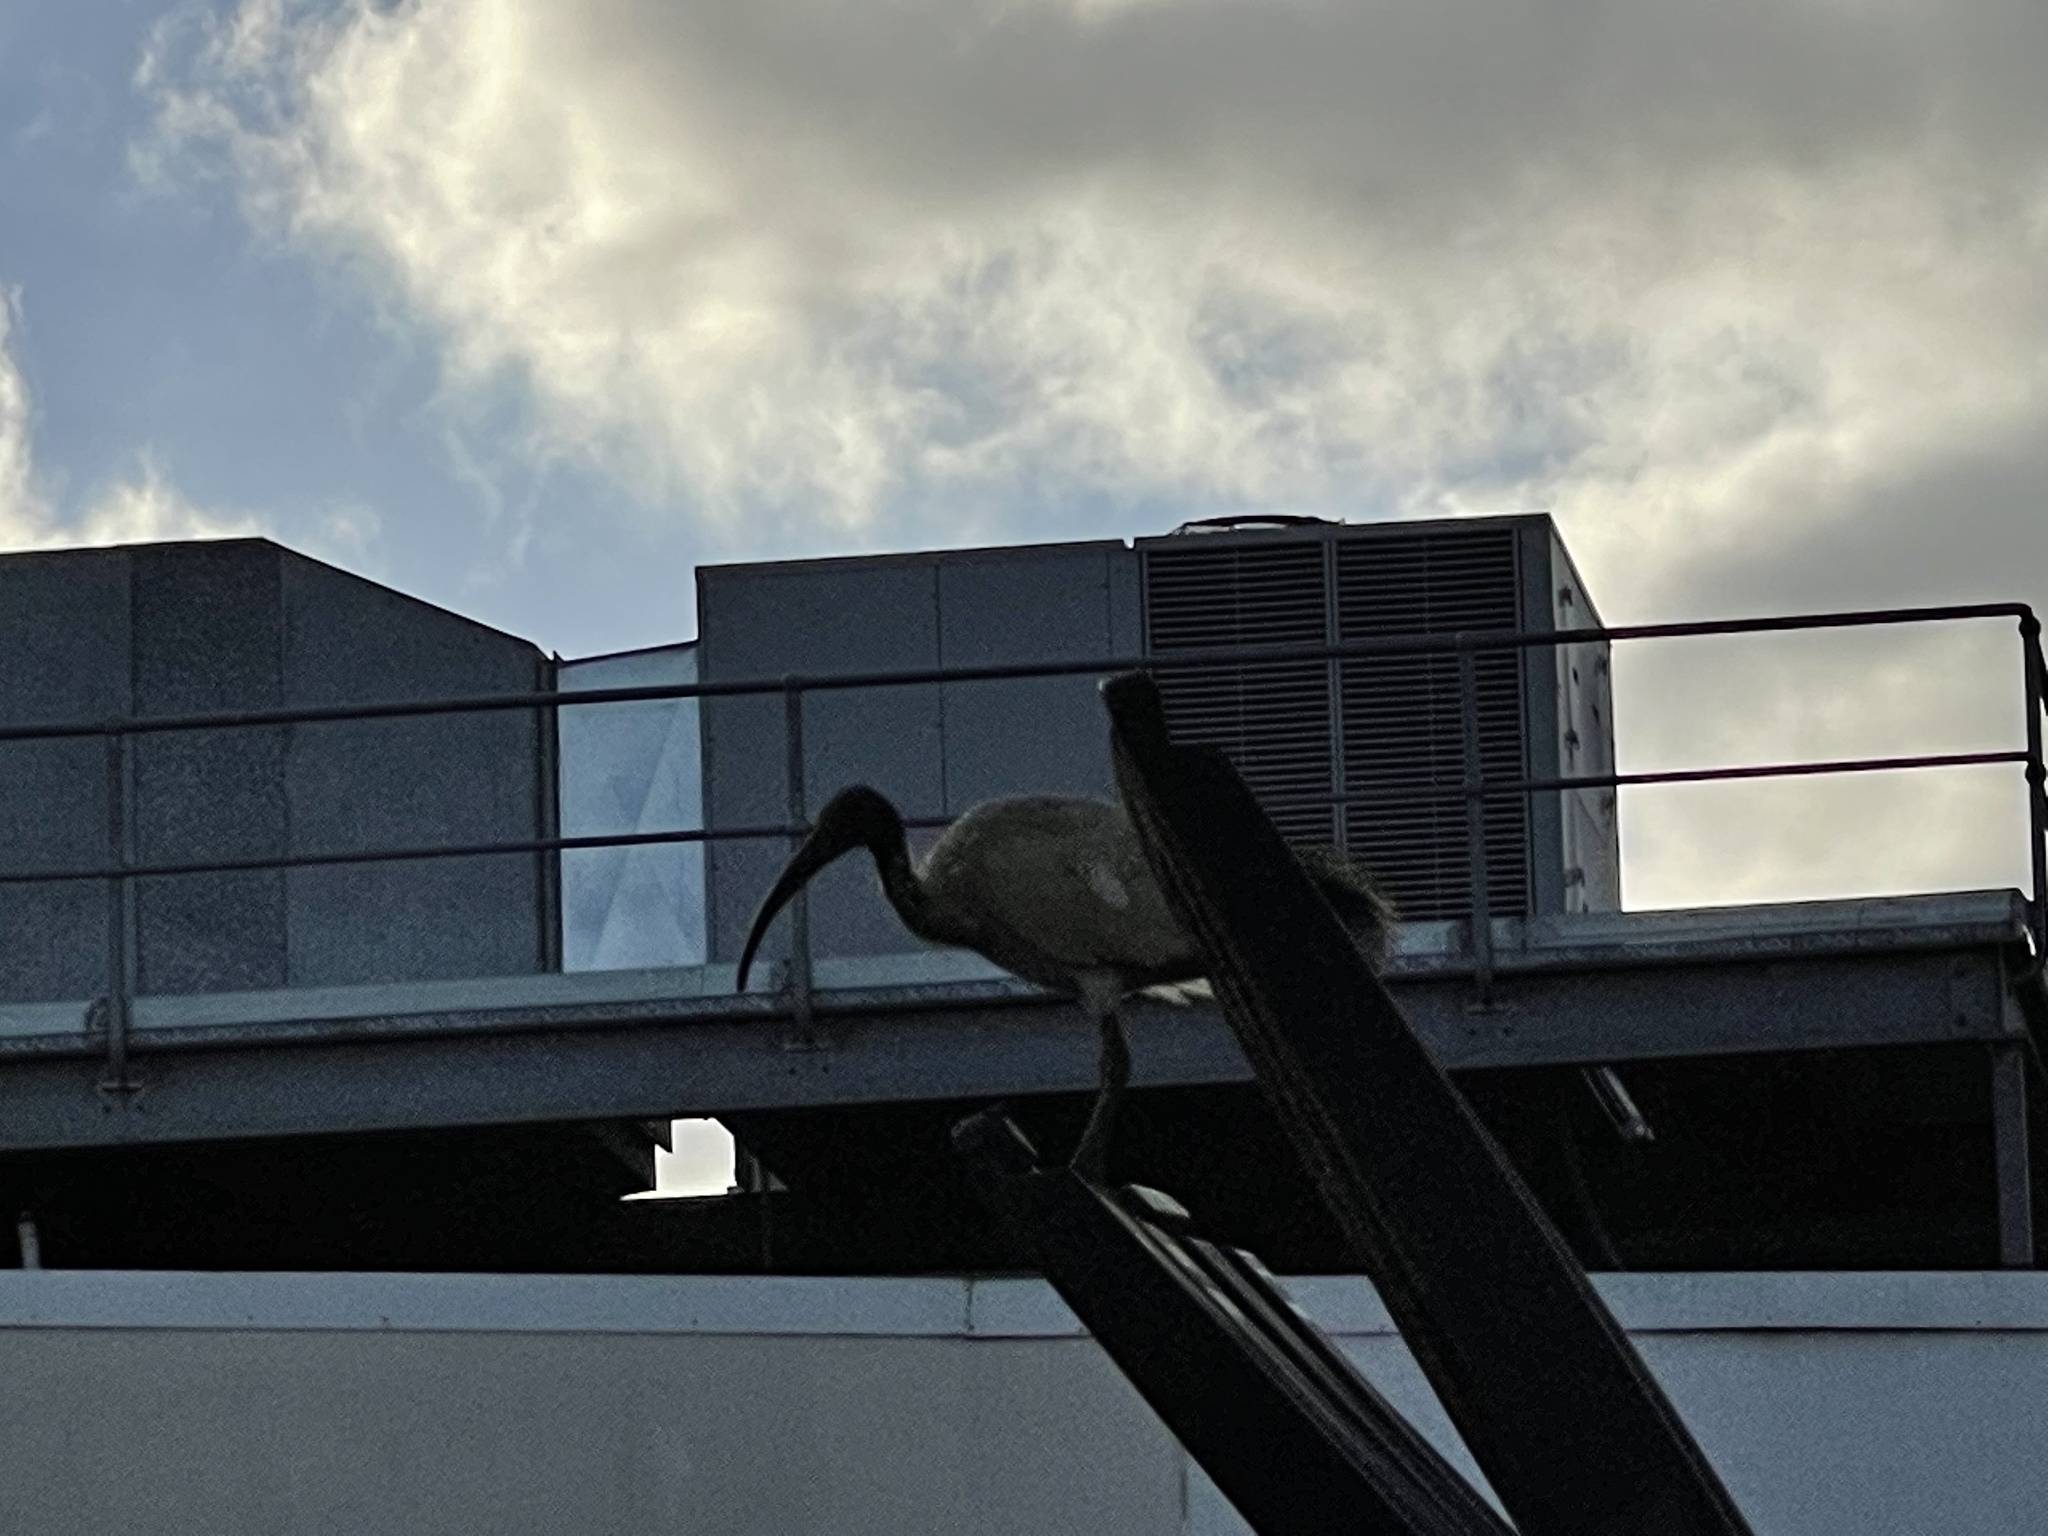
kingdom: Animalia
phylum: Chordata
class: Aves
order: Pelecaniformes
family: Threskiornithidae
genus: Threskiornis
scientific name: Threskiornis molucca
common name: Australian white ibis
